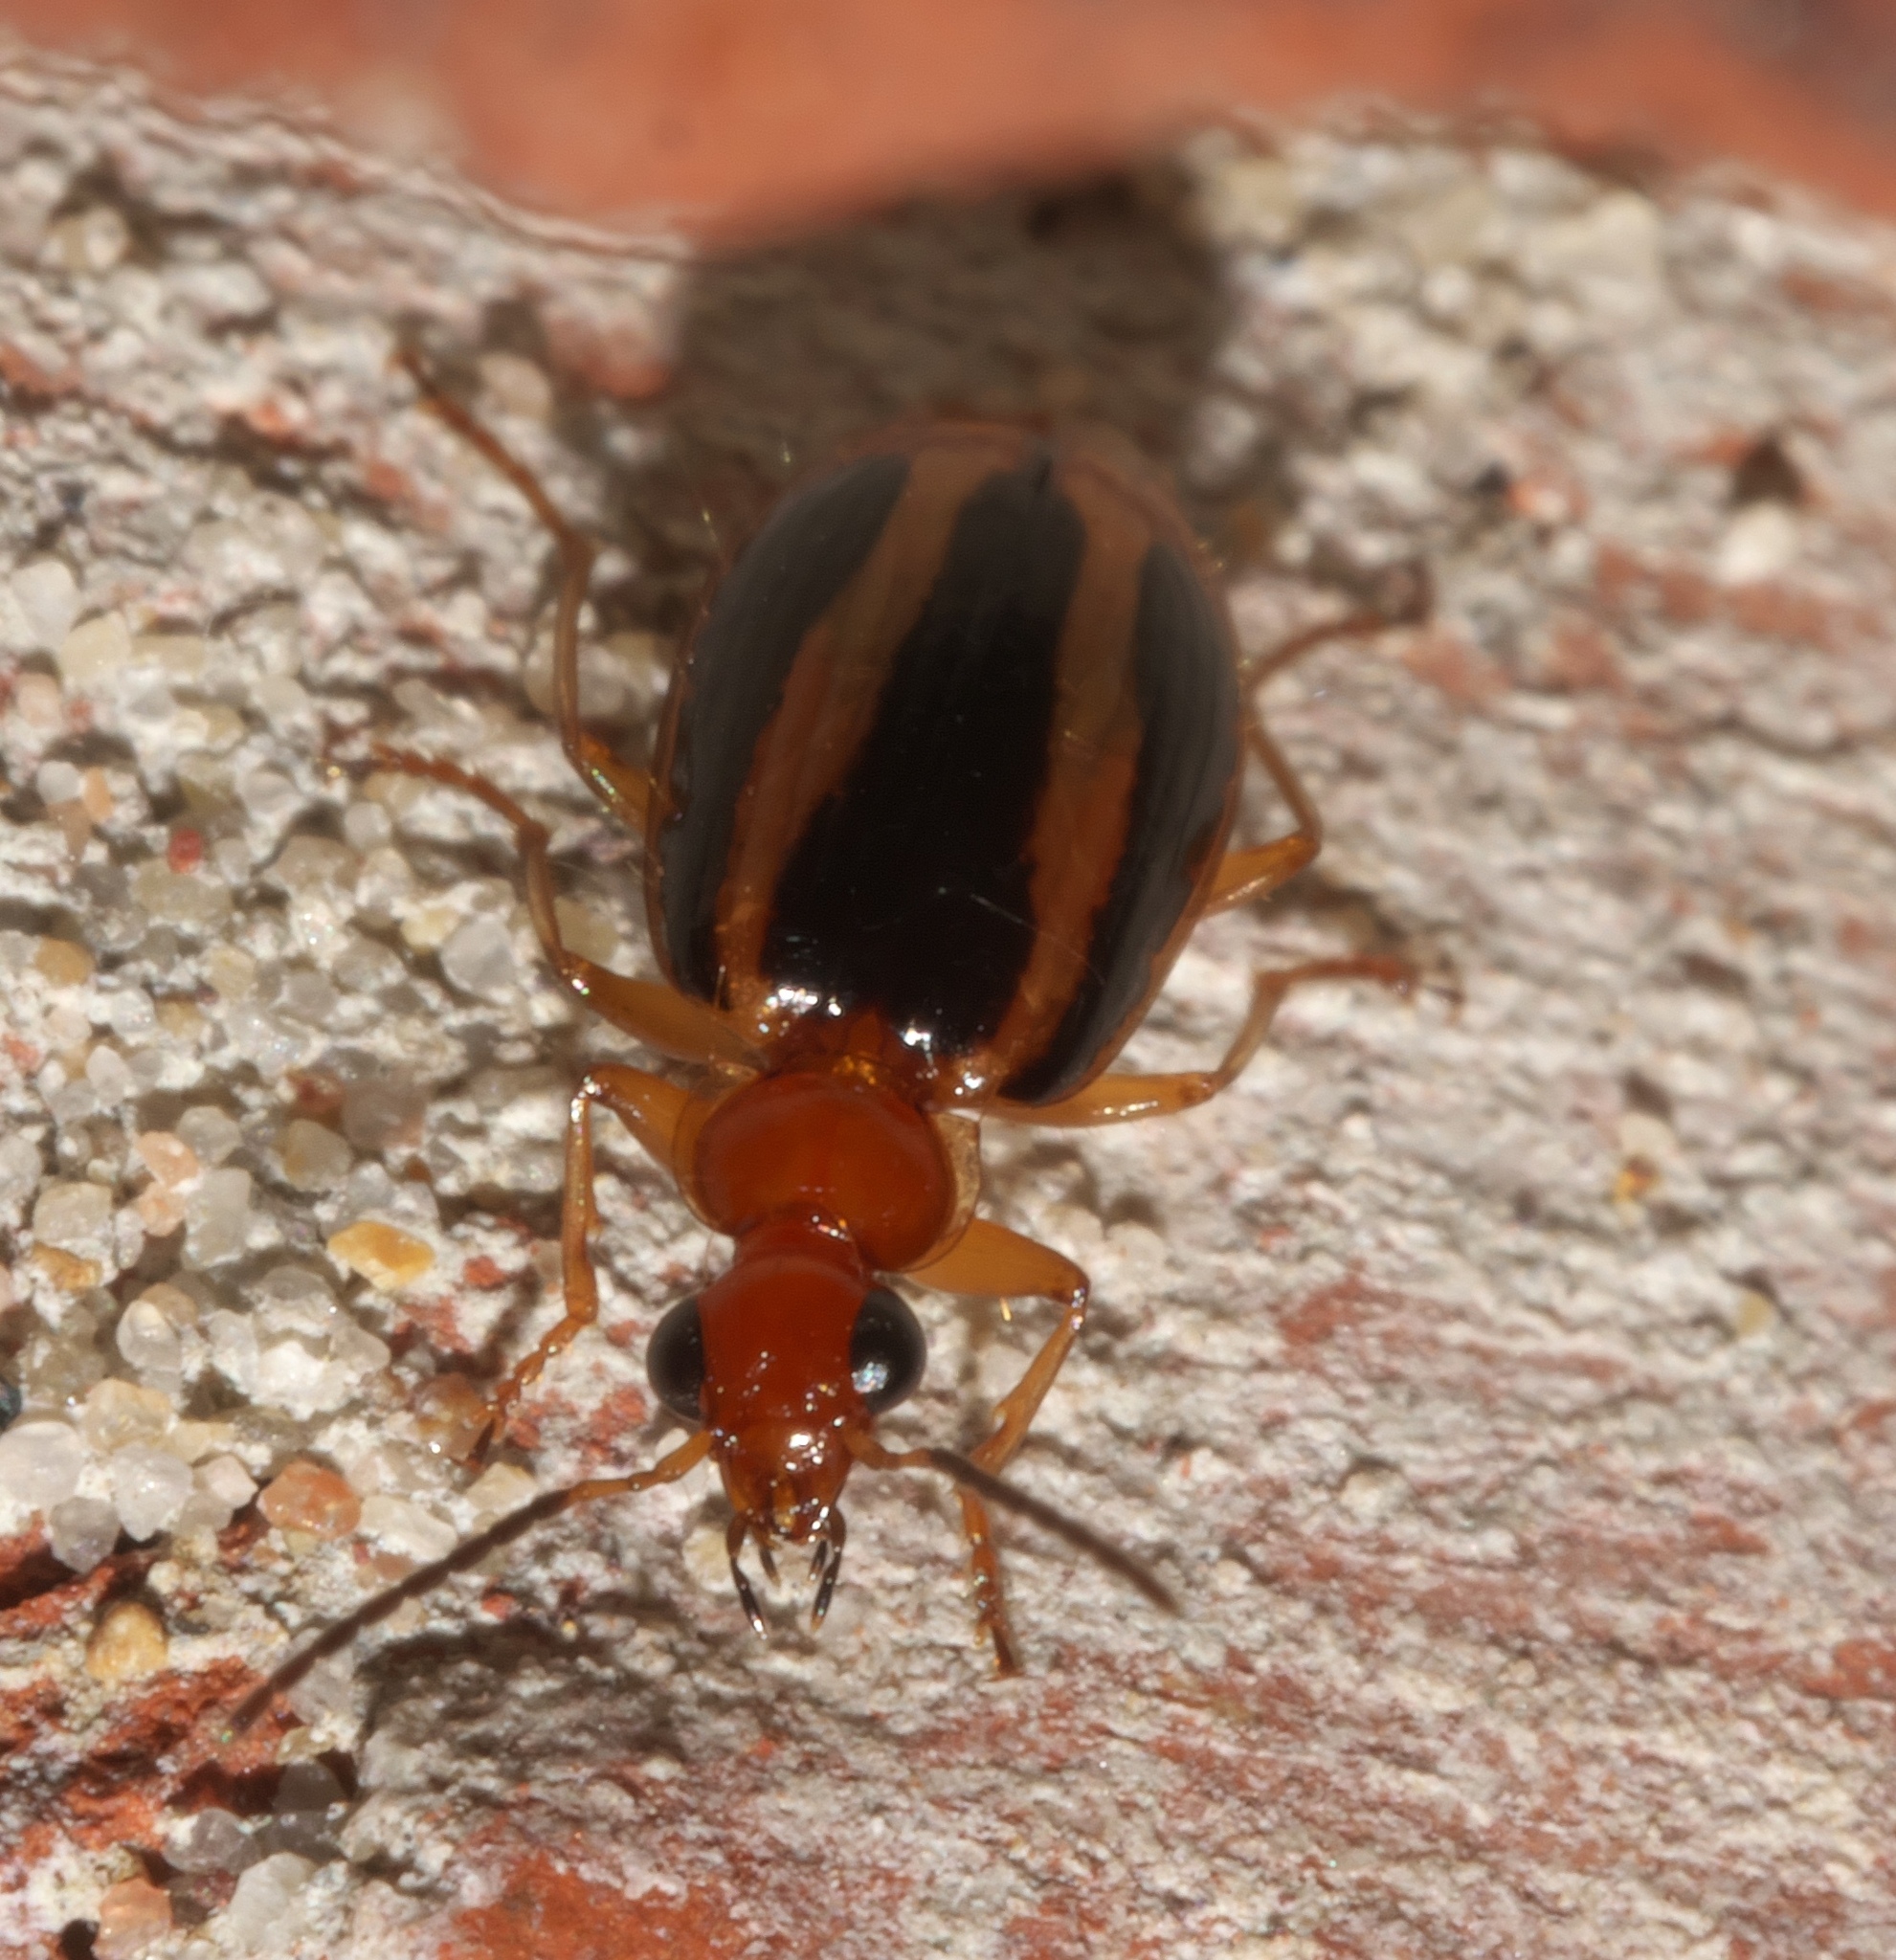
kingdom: Animalia
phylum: Arthropoda
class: Insecta
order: Coleoptera
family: Carabidae
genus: Lebia
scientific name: Lebia solea
